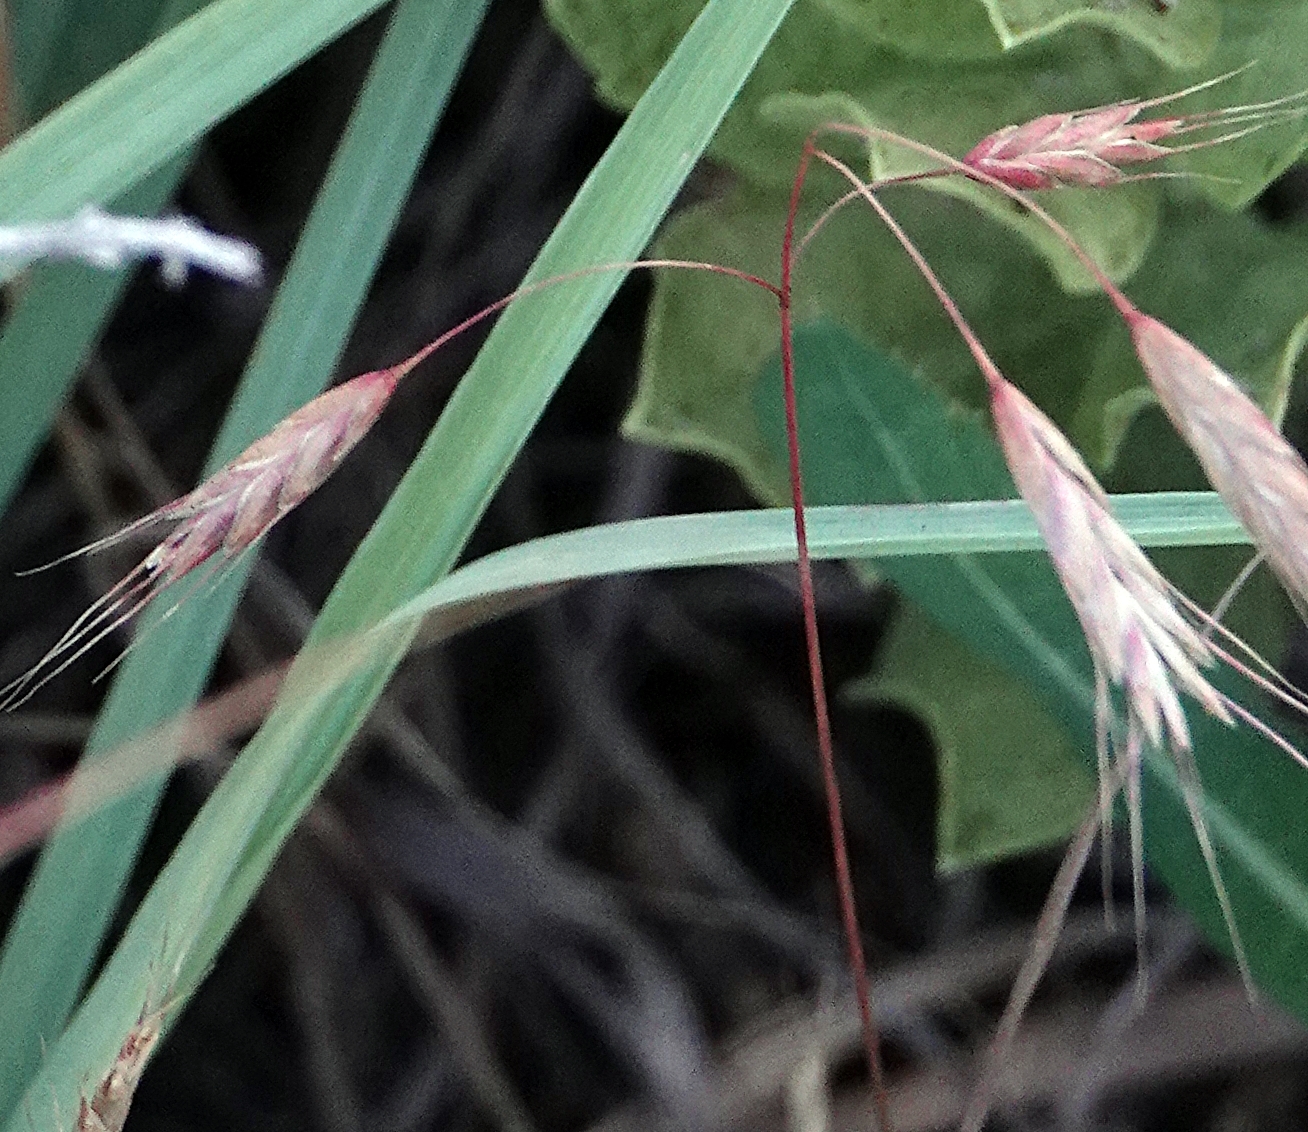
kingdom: Plantae
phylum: Tracheophyta
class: Liliopsida
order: Poales
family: Poaceae
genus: Bromus
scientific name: Bromus japonicus
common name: Japanese brome
